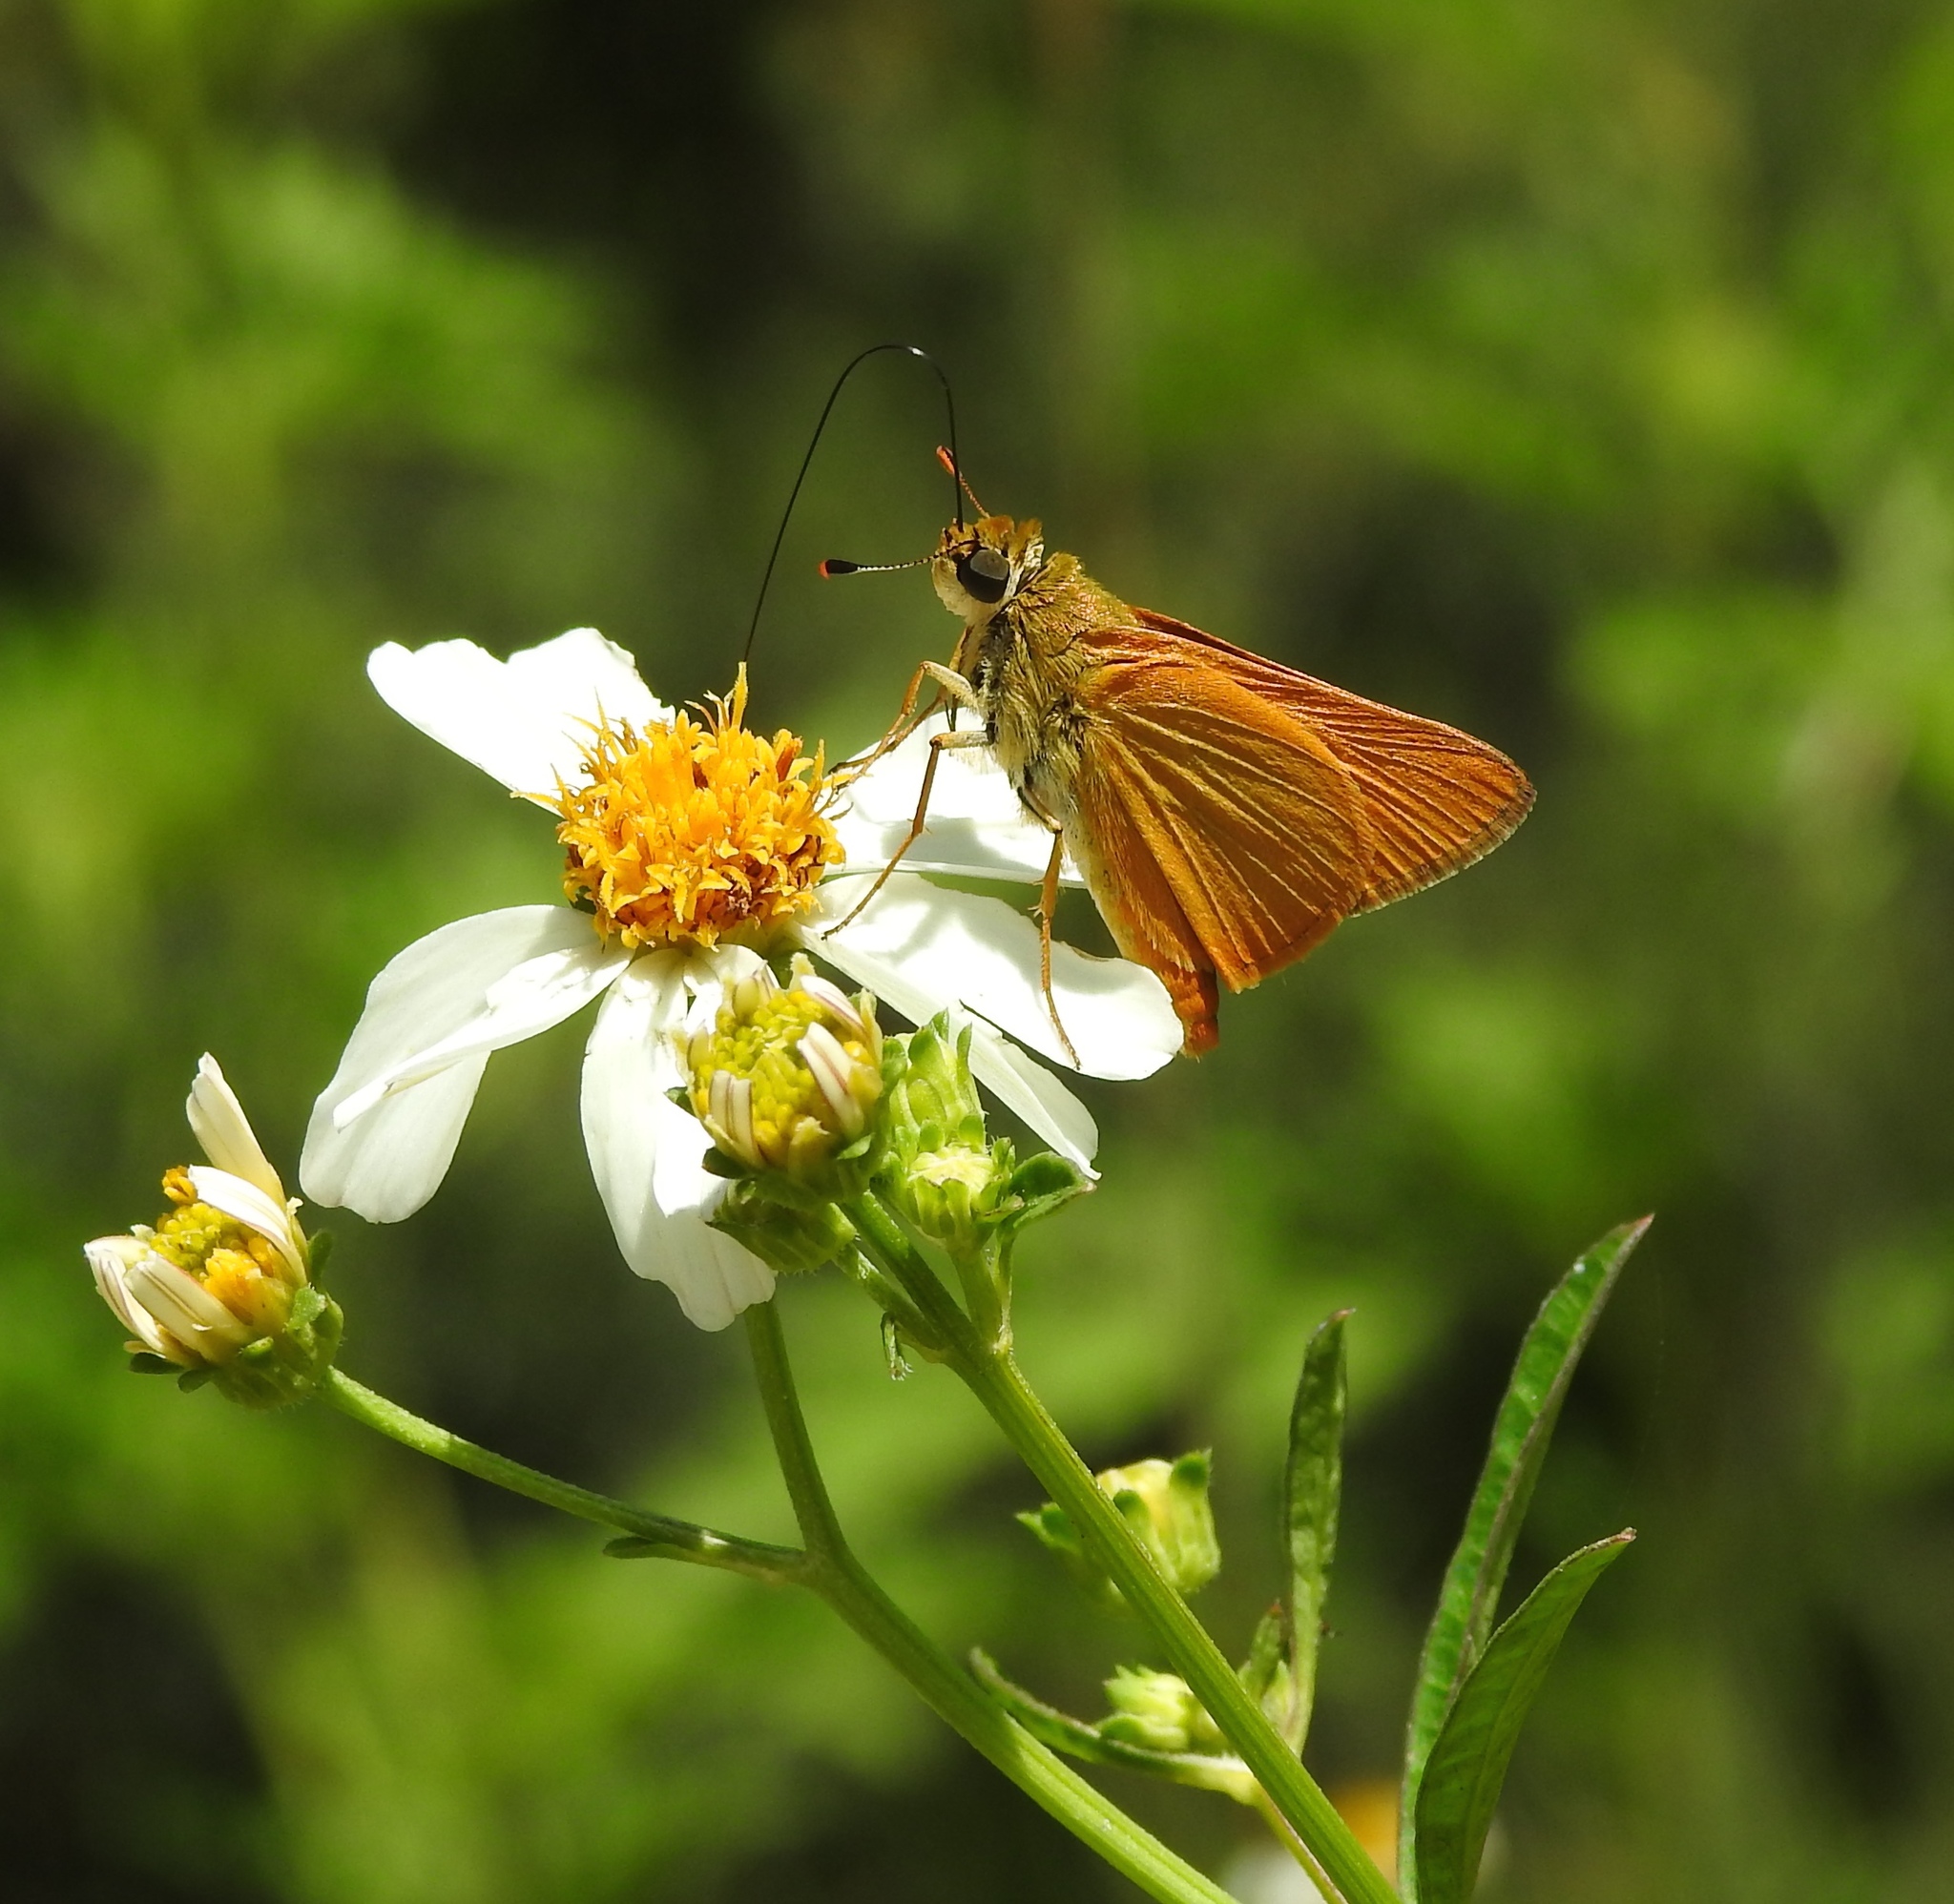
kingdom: Animalia
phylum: Arthropoda
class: Insecta
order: Lepidoptera
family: Hesperiidae
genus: Atrytone
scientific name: Atrytone delaware
